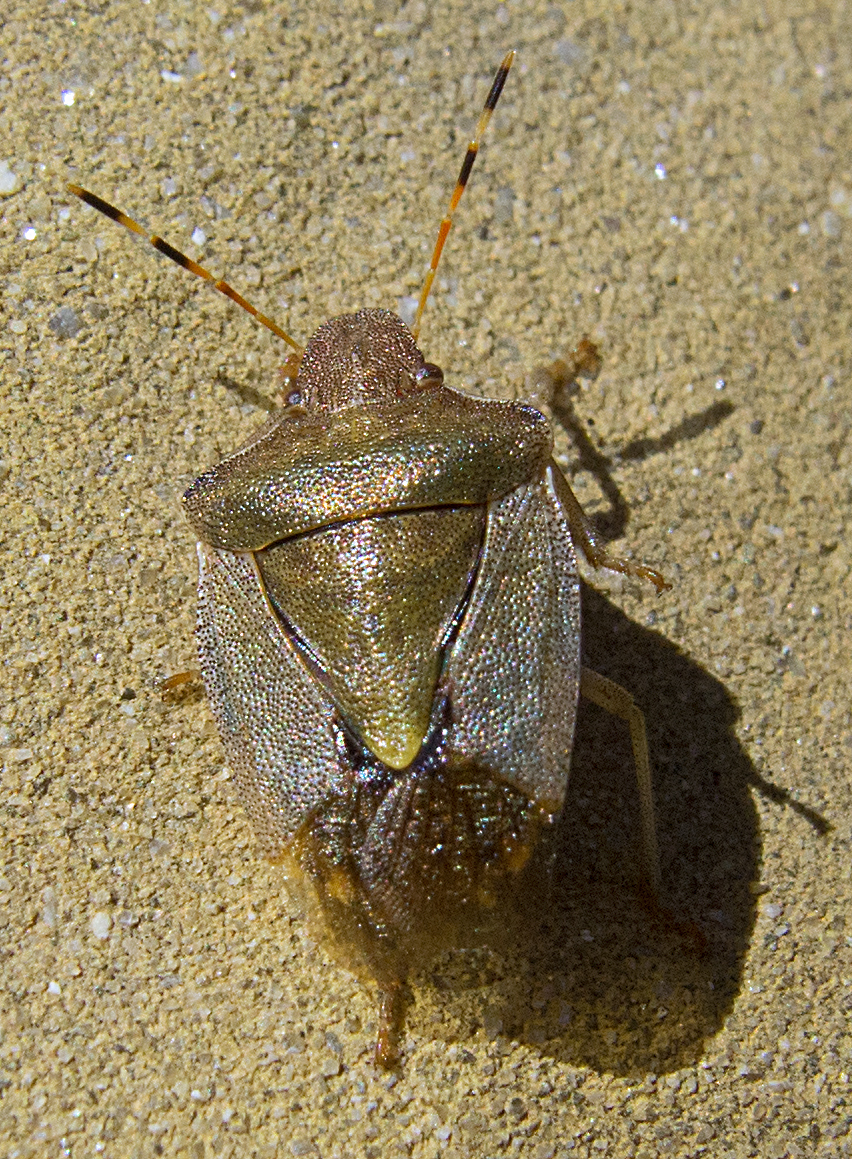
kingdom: Animalia
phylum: Arthropoda
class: Insecta
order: Hemiptera
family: Pentatomidae
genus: Holcostethus
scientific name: Holcostethus strictus
